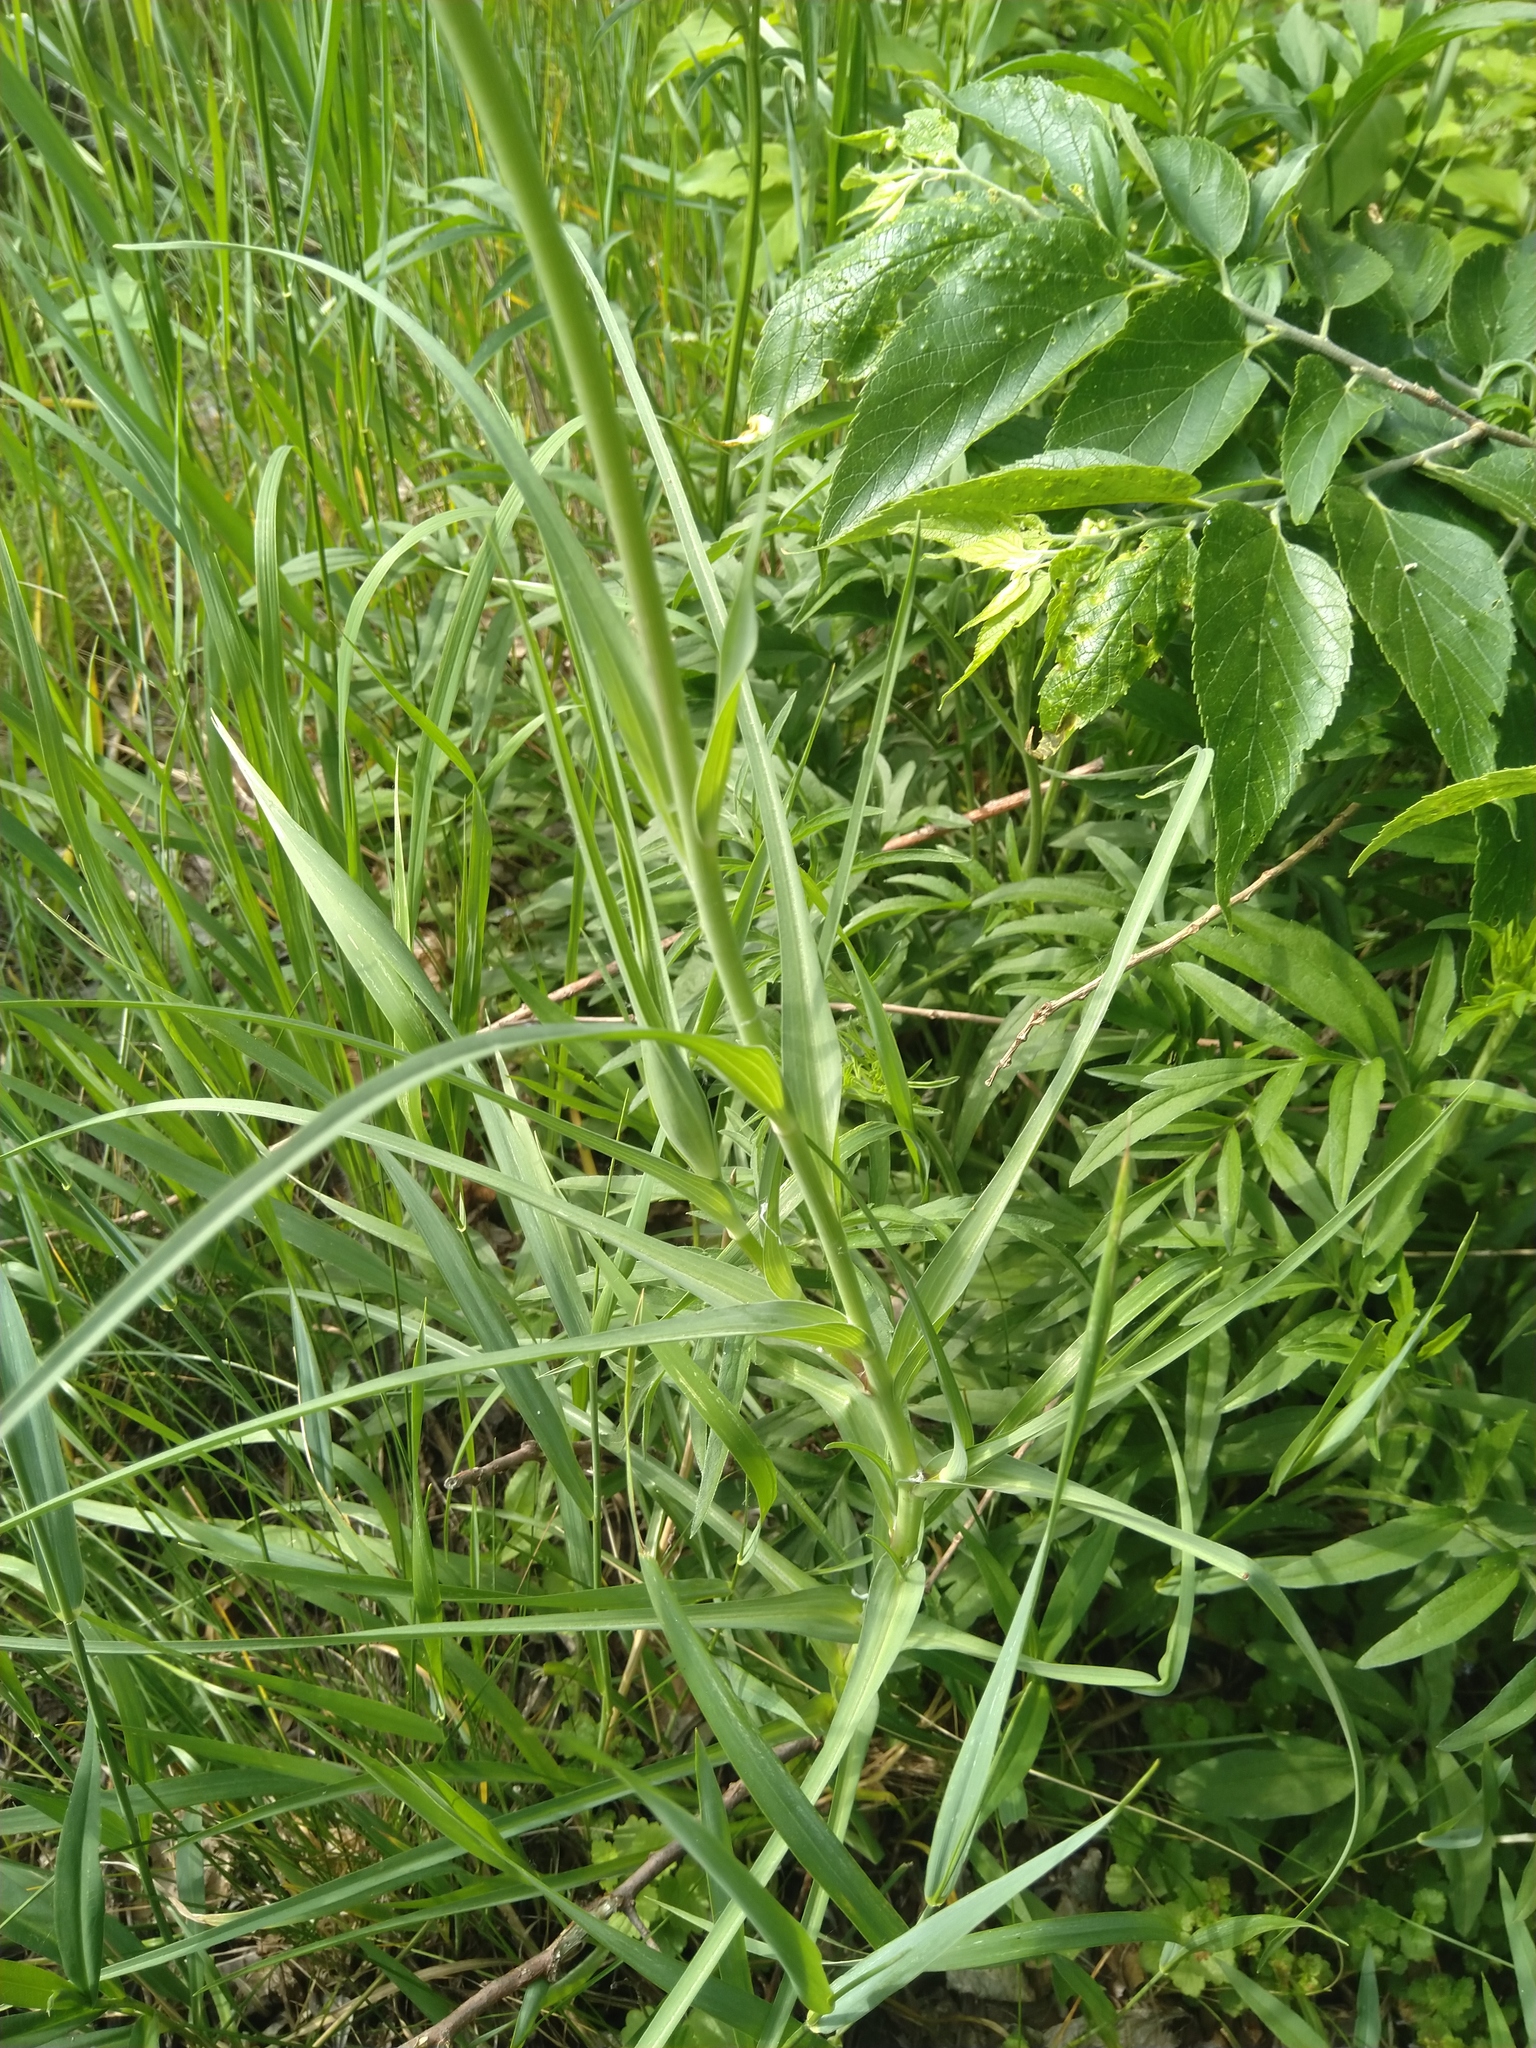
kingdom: Plantae
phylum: Tracheophyta
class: Magnoliopsida
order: Asterales
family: Asteraceae
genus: Tragopogon
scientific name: Tragopogon dubius
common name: Yellow salsify
